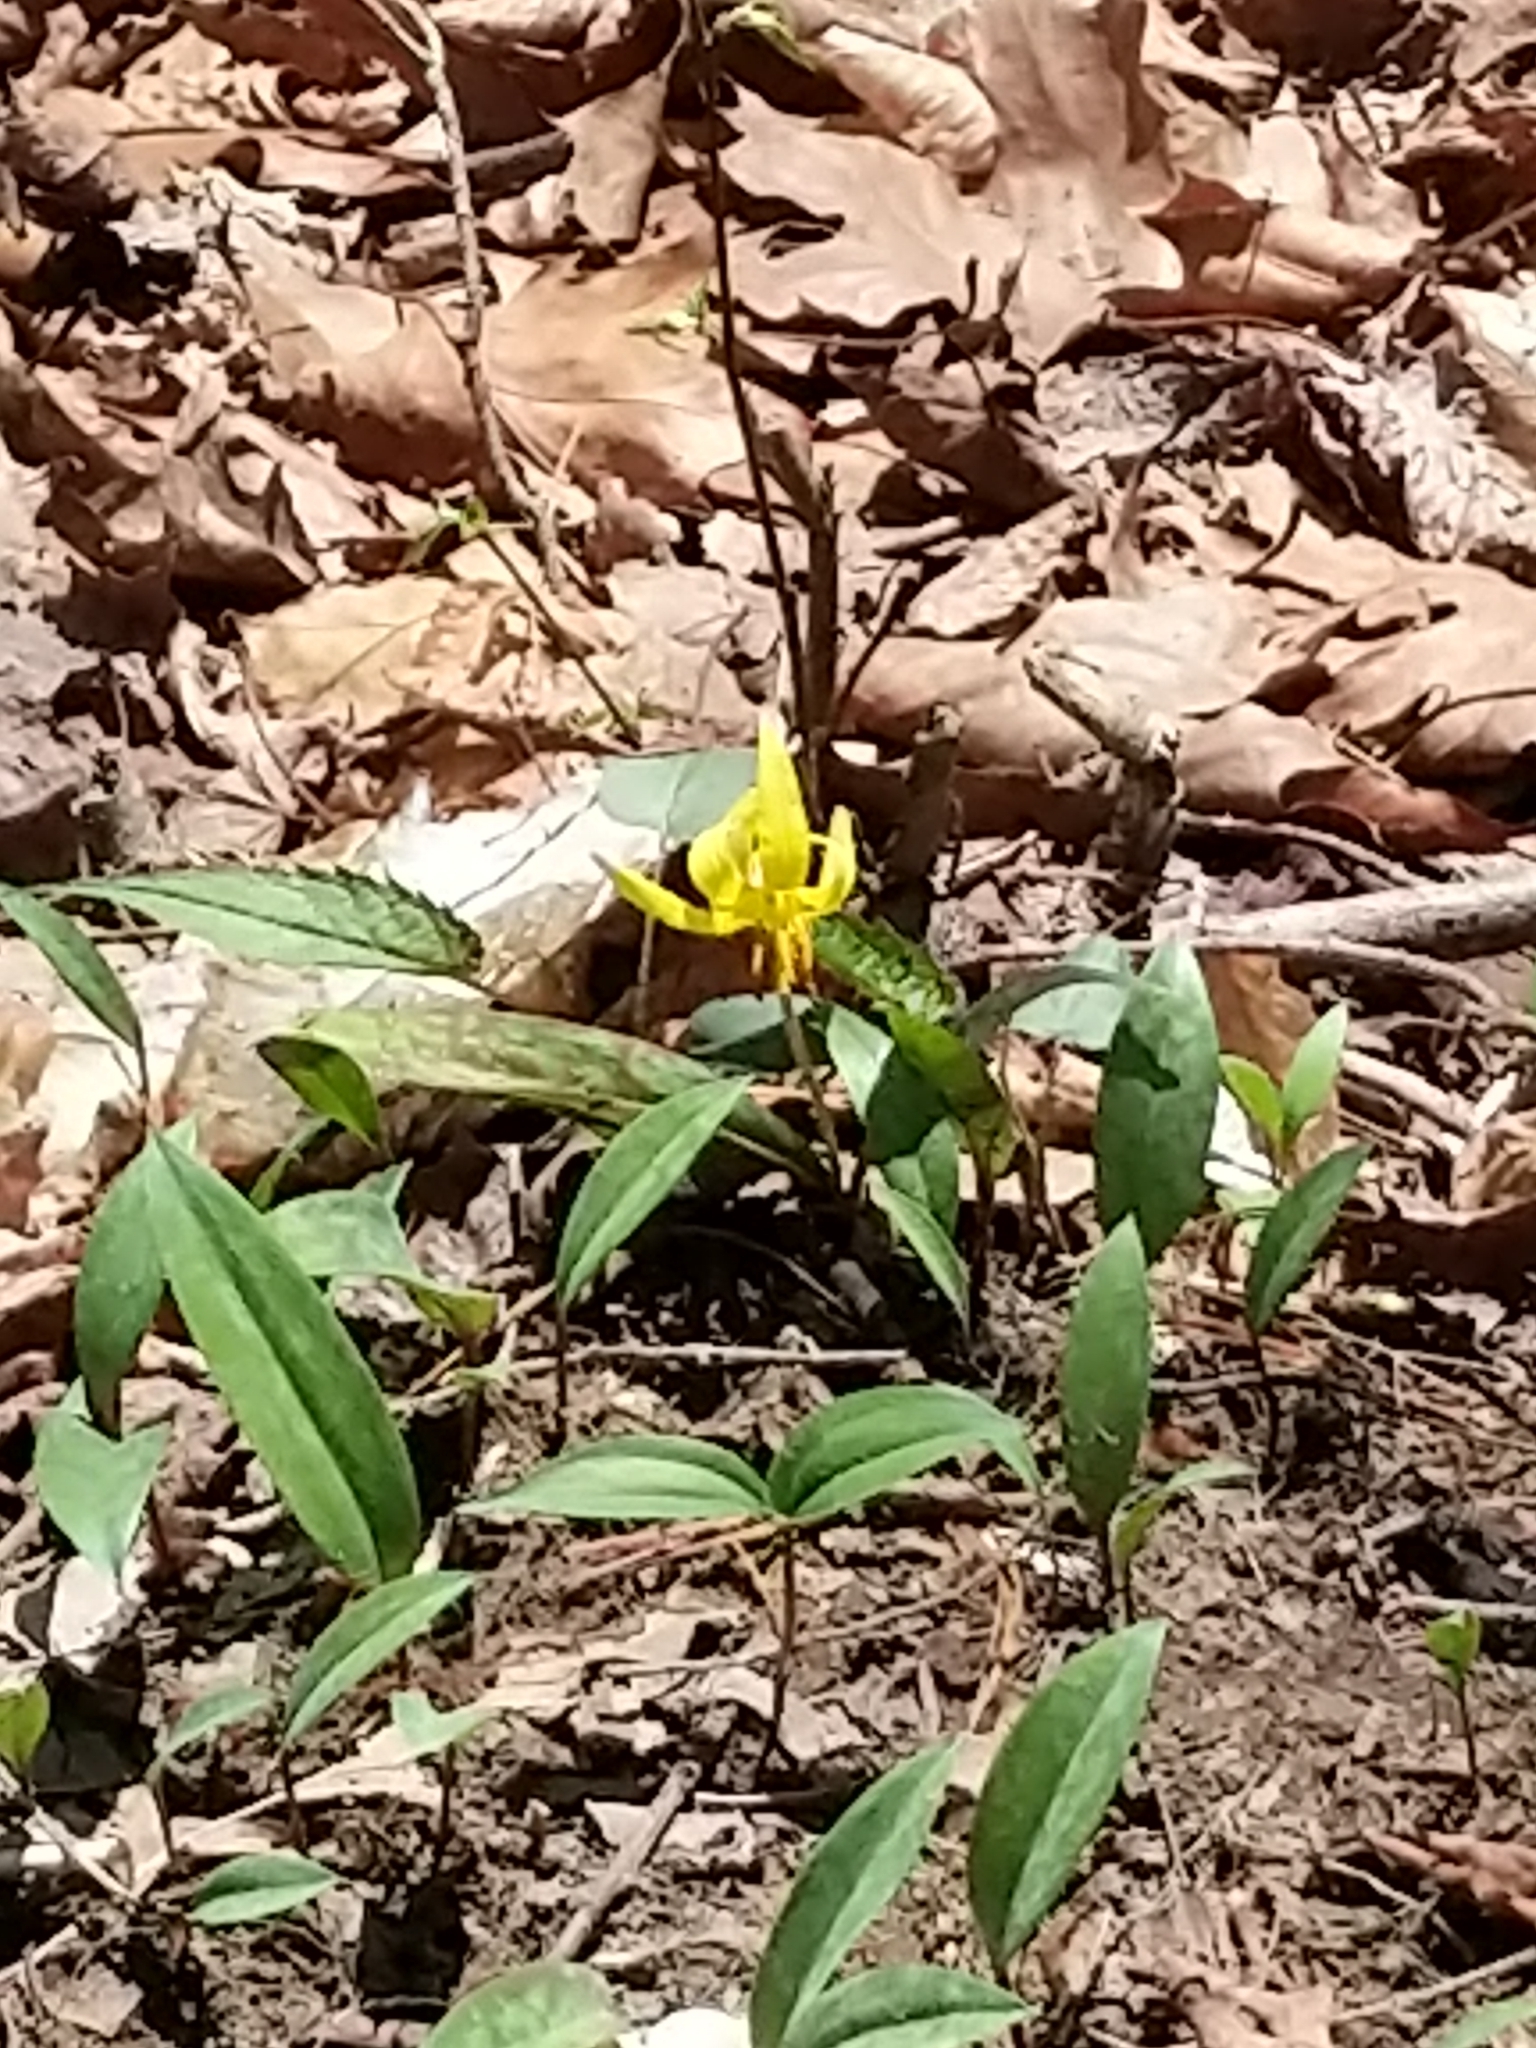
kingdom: Plantae
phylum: Tracheophyta
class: Liliopsida
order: Liliales
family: Liliaceae
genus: Erythronium
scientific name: Erythronium americanum
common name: Yellow adder's-tongue
